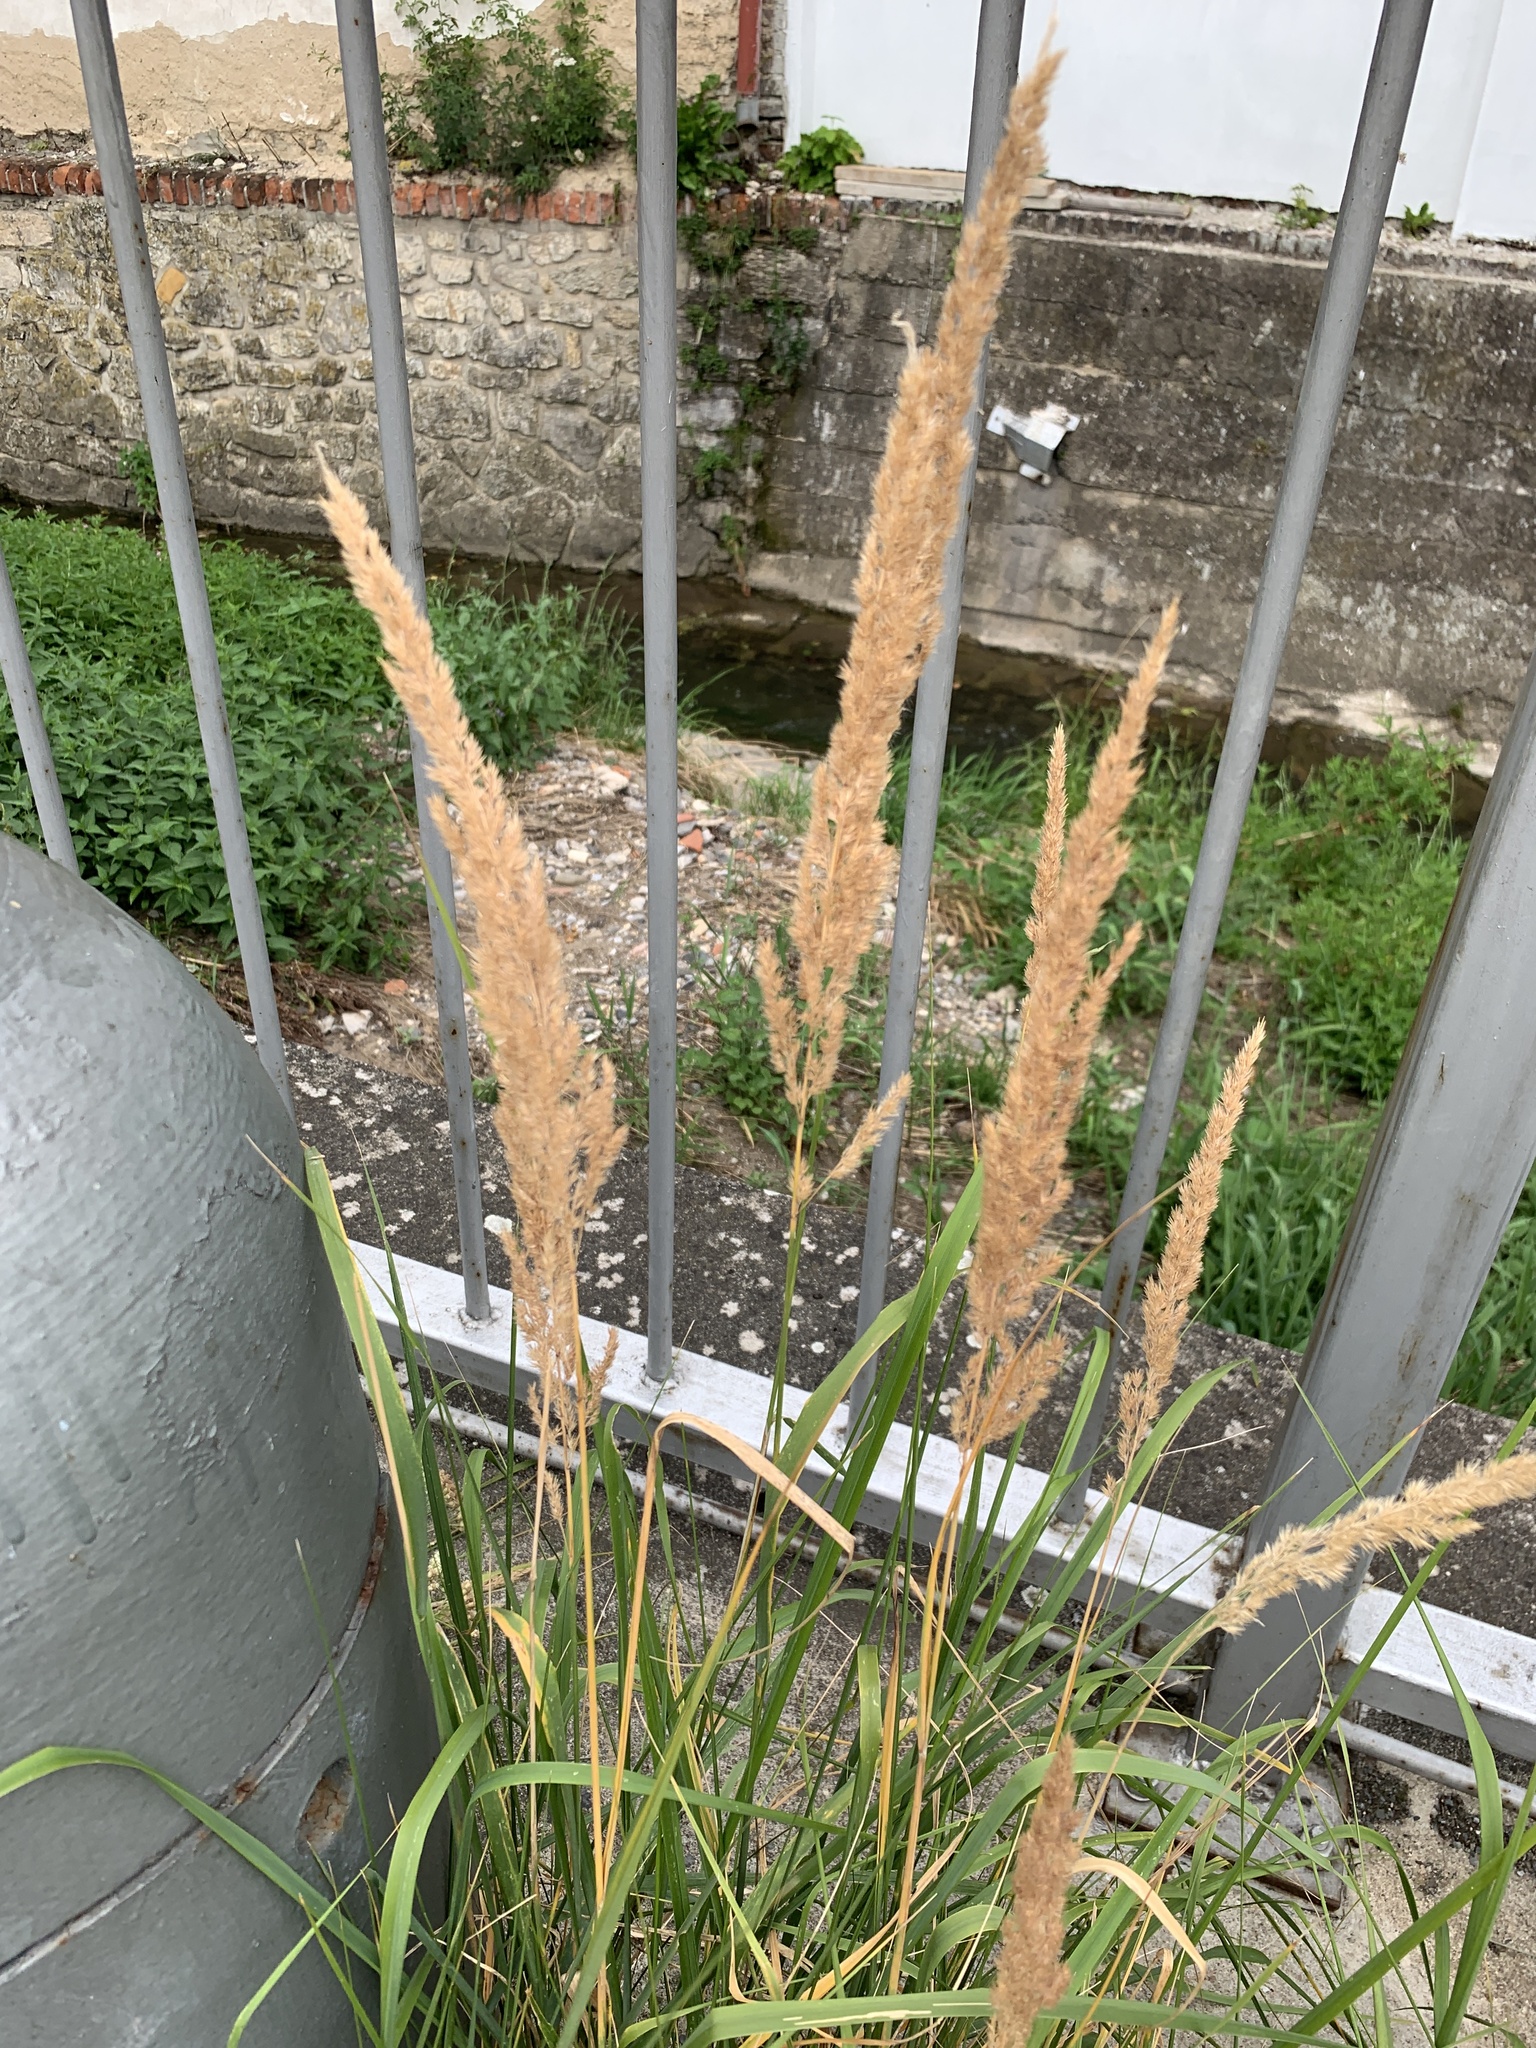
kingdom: Plantae
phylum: Tracheophyta
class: Liliopsida
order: Poales
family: Poaceae
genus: Calamagrostis
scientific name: Calamagrostis epigejos
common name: Wood small-reed
